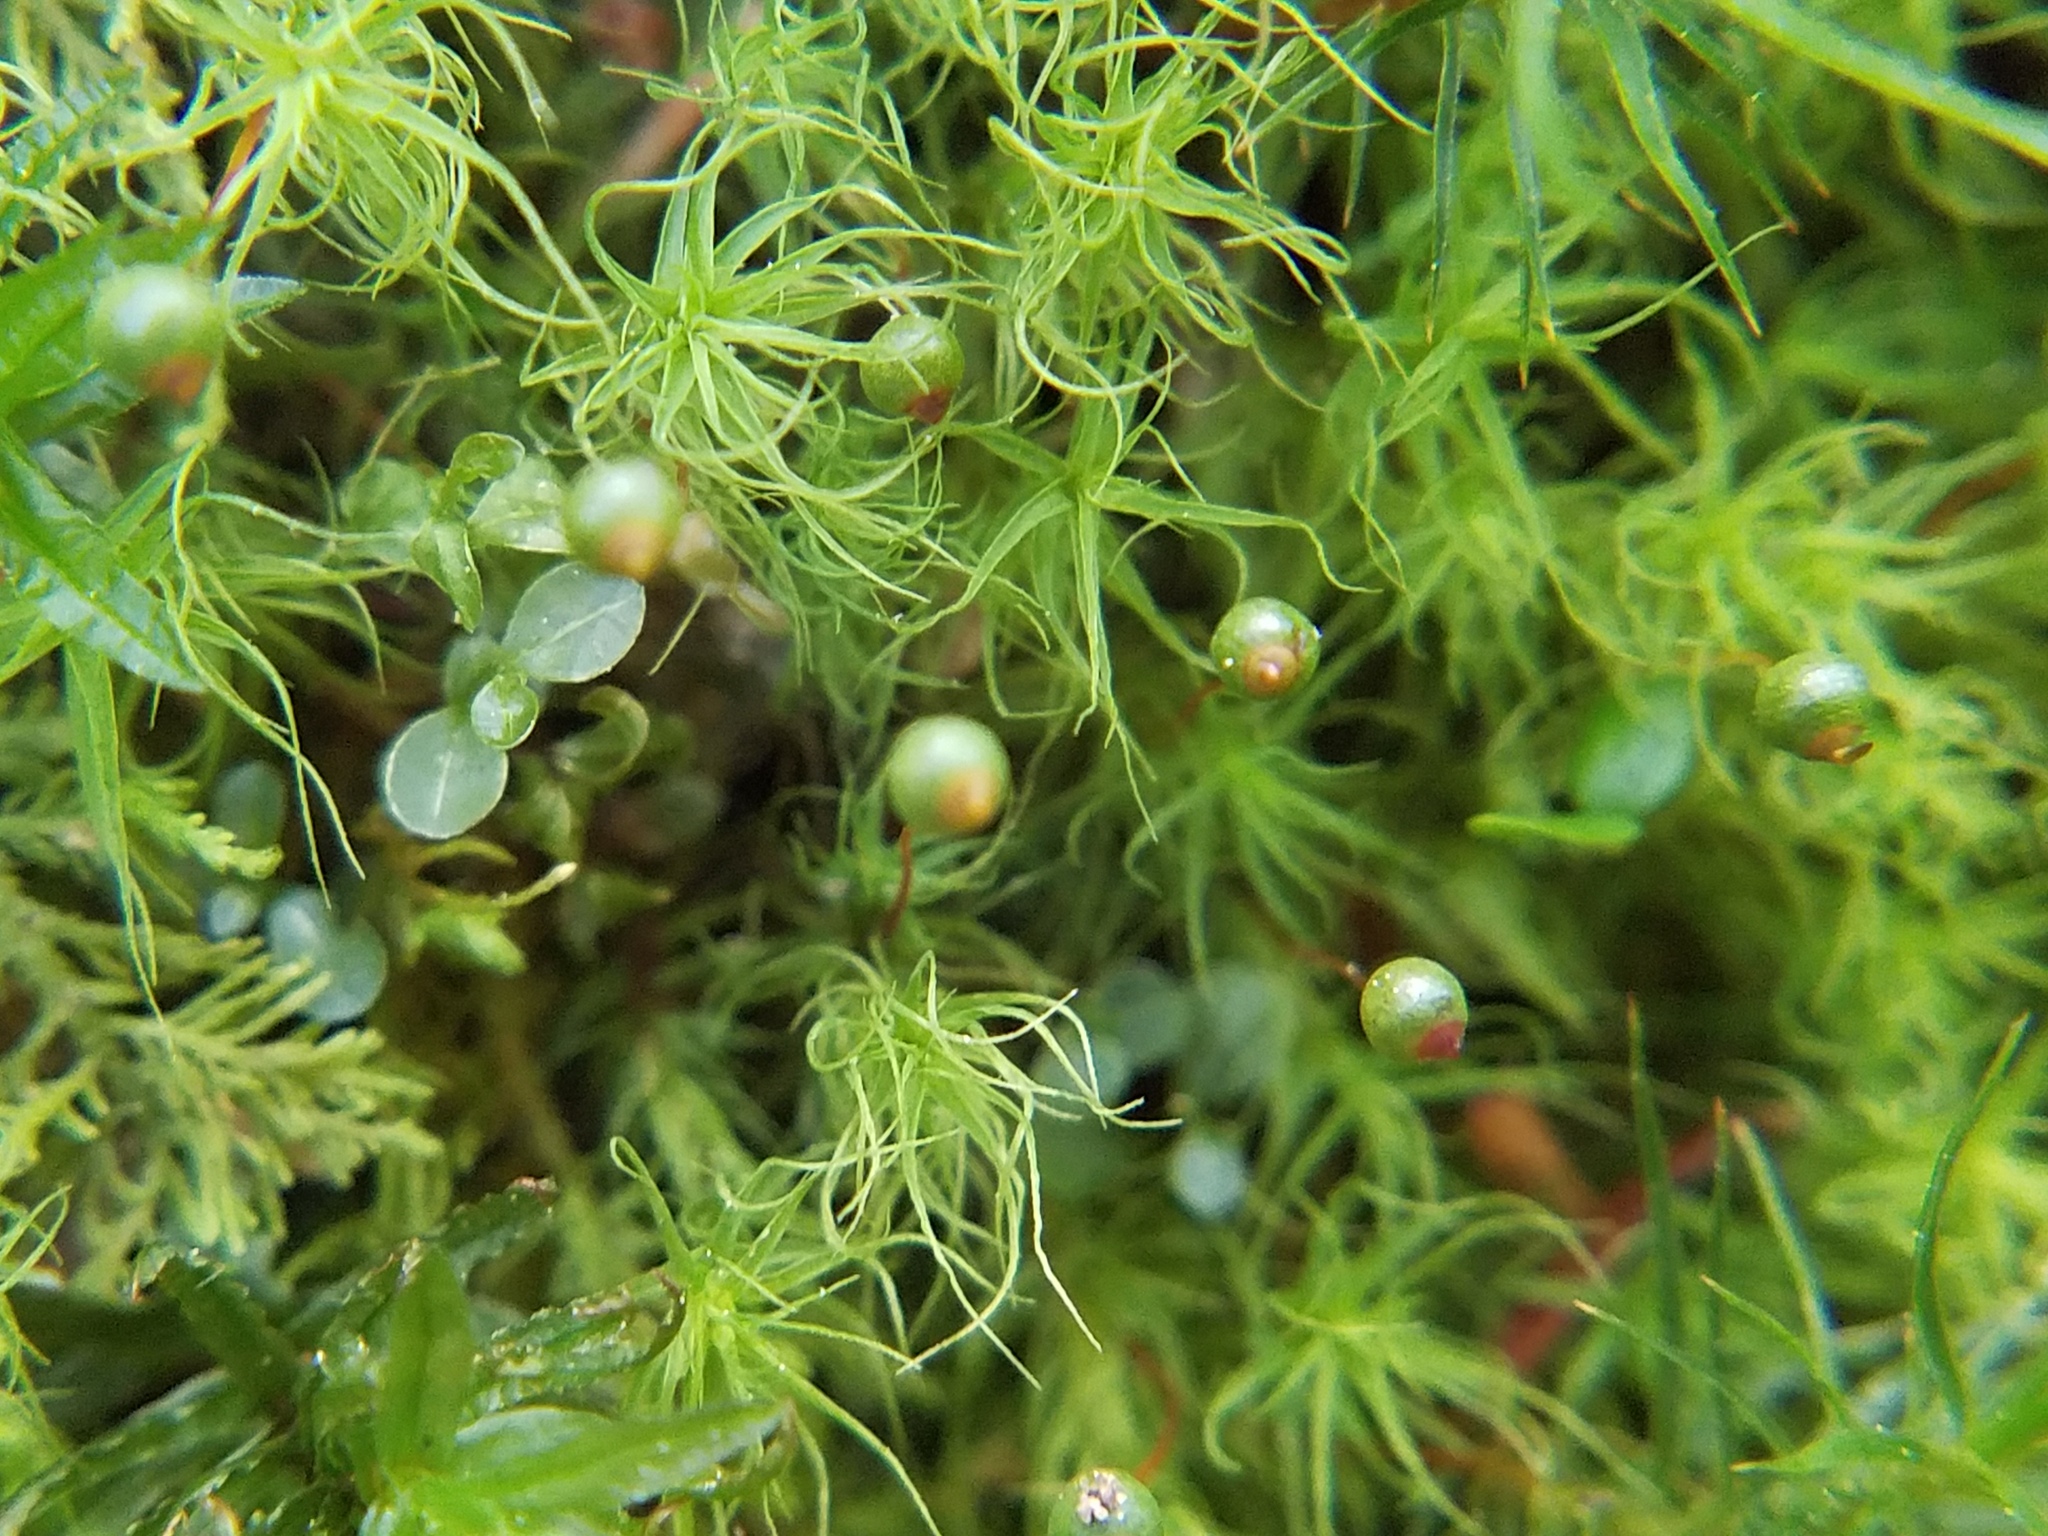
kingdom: Plantae
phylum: Bryophyta
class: Bryopsida
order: Bartramiales
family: Bartramiaceae
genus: Bartramia
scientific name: Bartramia ithyphylla
